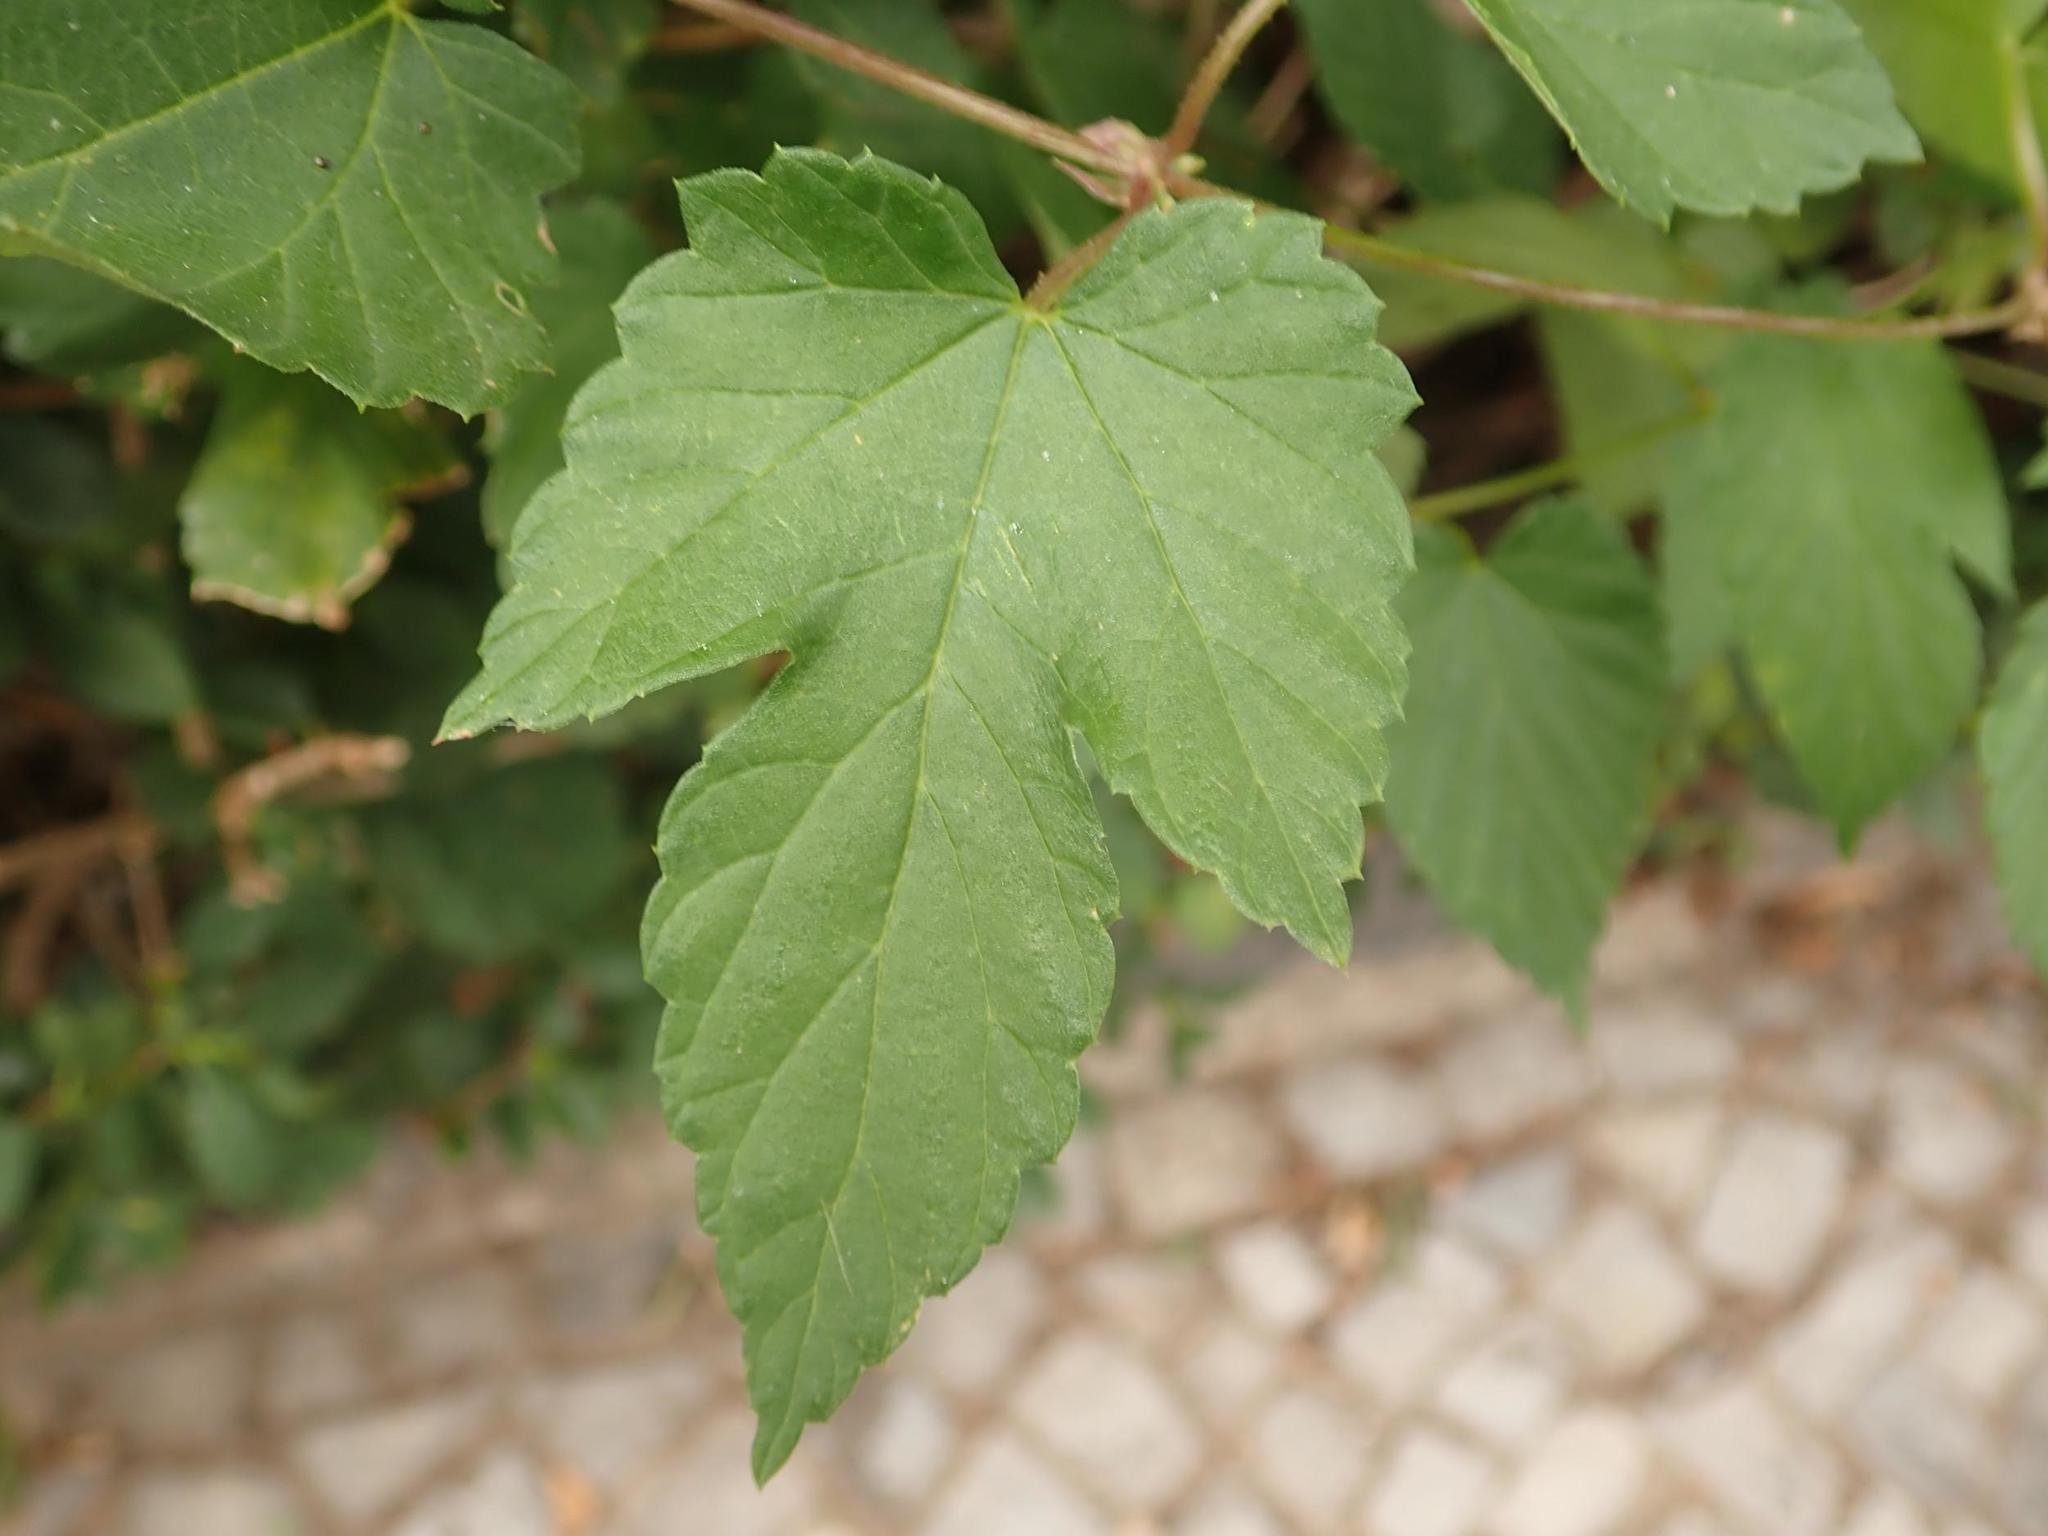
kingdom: Plantae
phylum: Tracheophyta
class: Magnoliopsida
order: Rosales
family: Cannabaceae
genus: Humulus
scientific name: Humulus lupulus
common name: Hop
